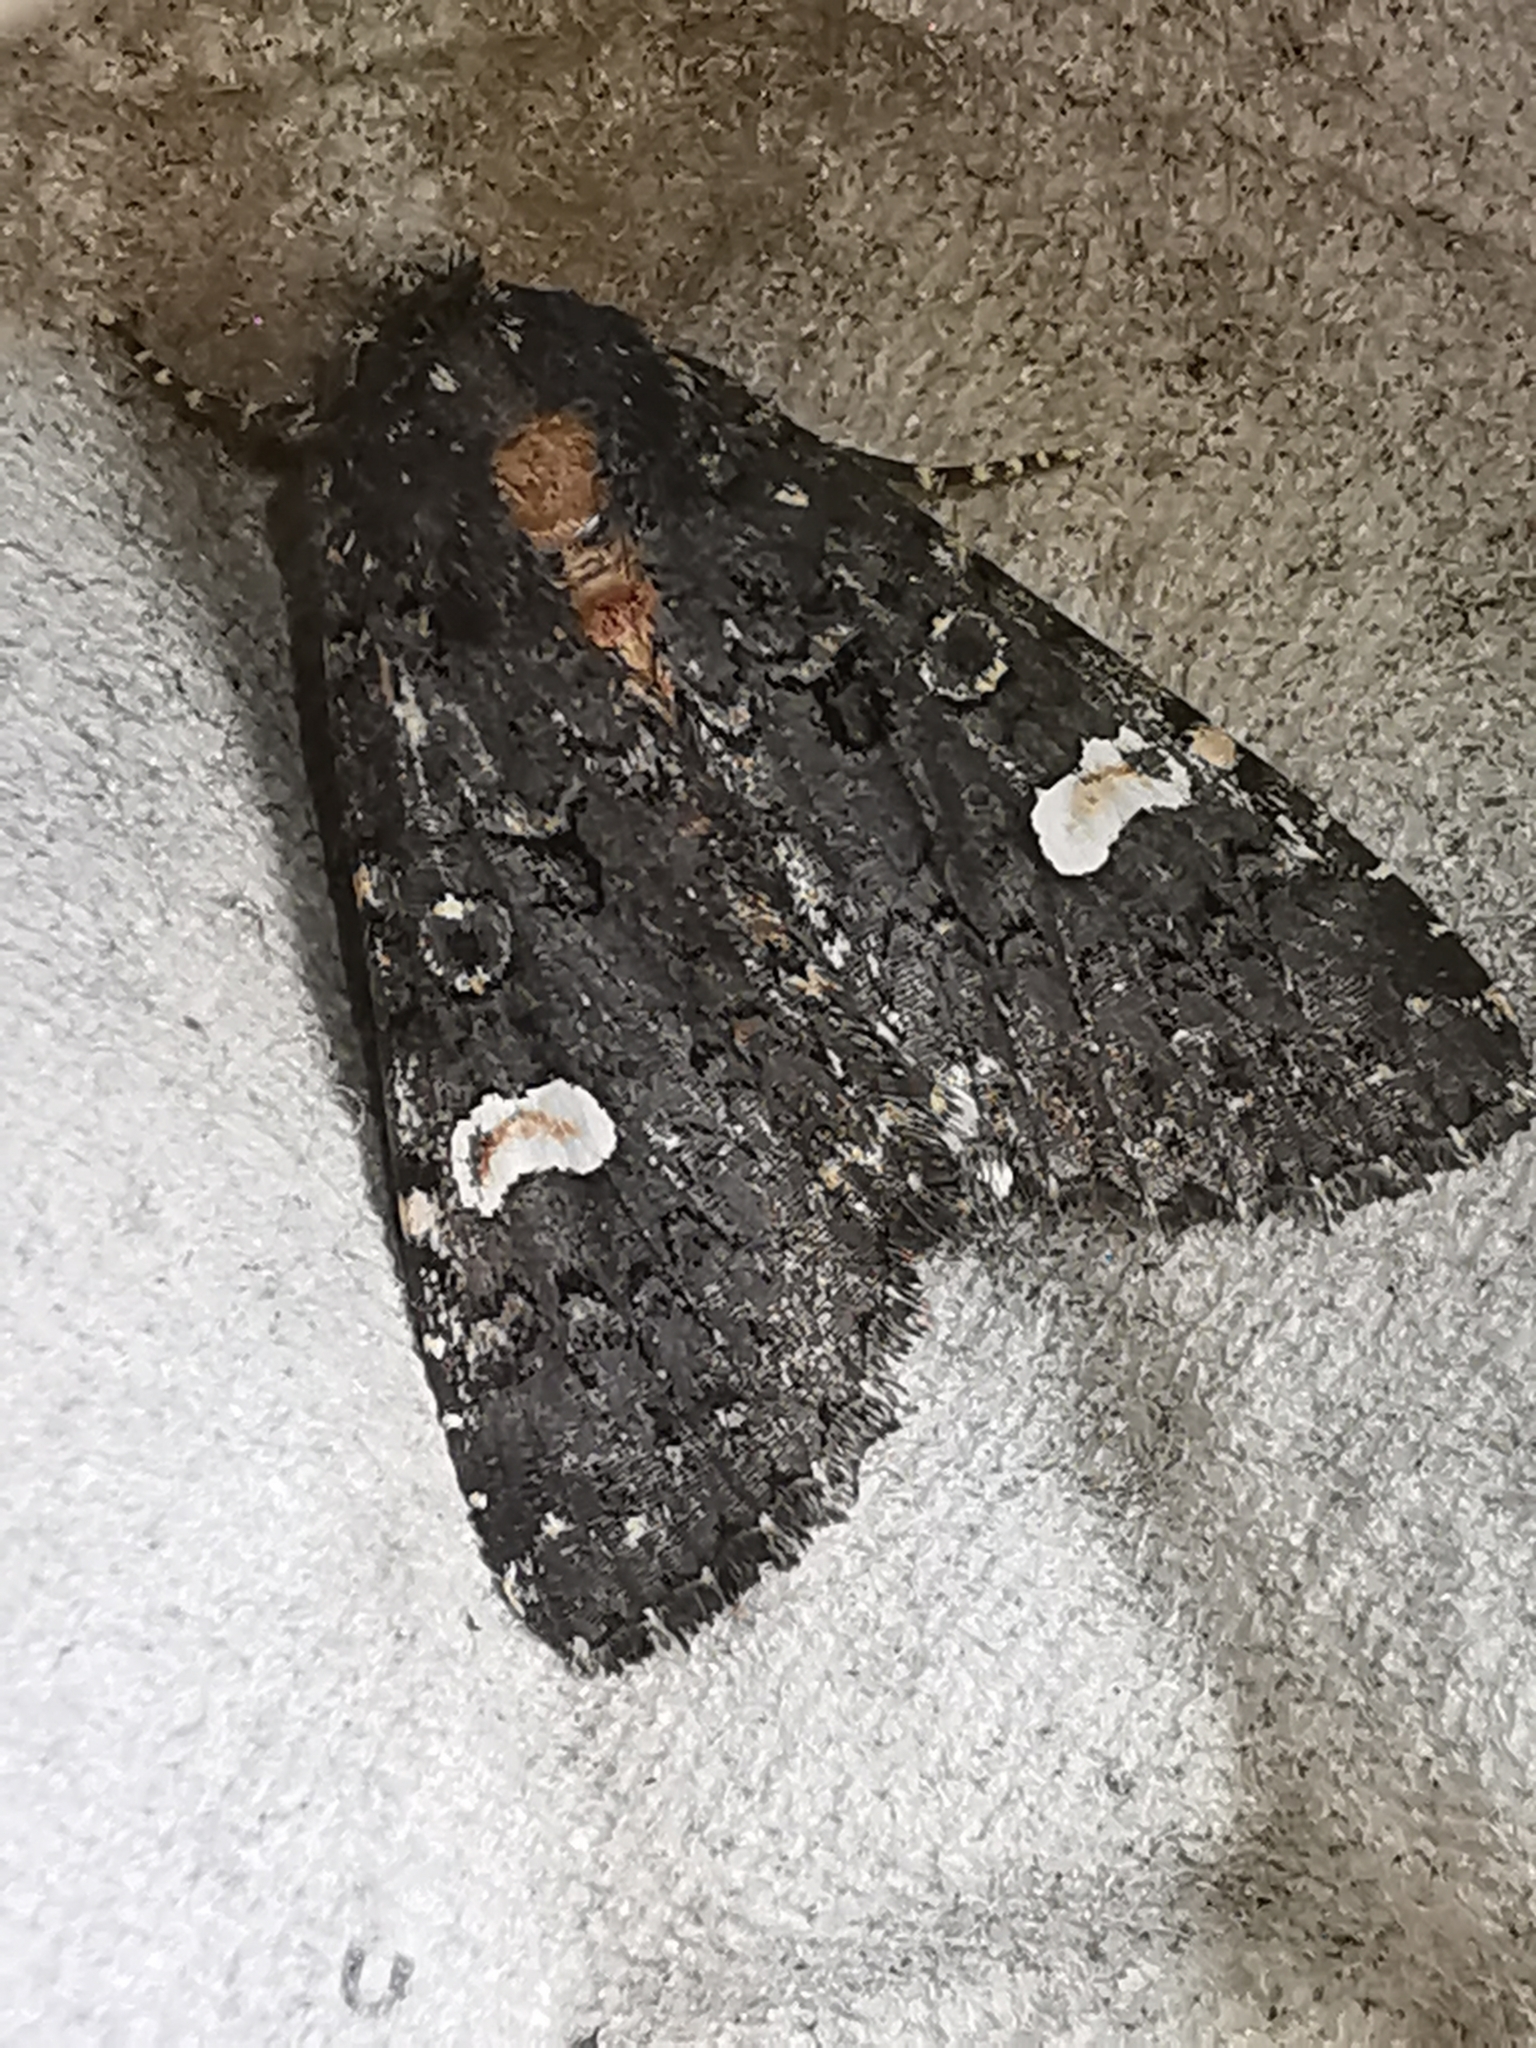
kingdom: Animalia
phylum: Arthropoda
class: Insecta
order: Lepidoptera
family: Noctuidae
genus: Melanchra
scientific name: Melanchra persicariae
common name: Dot moth
